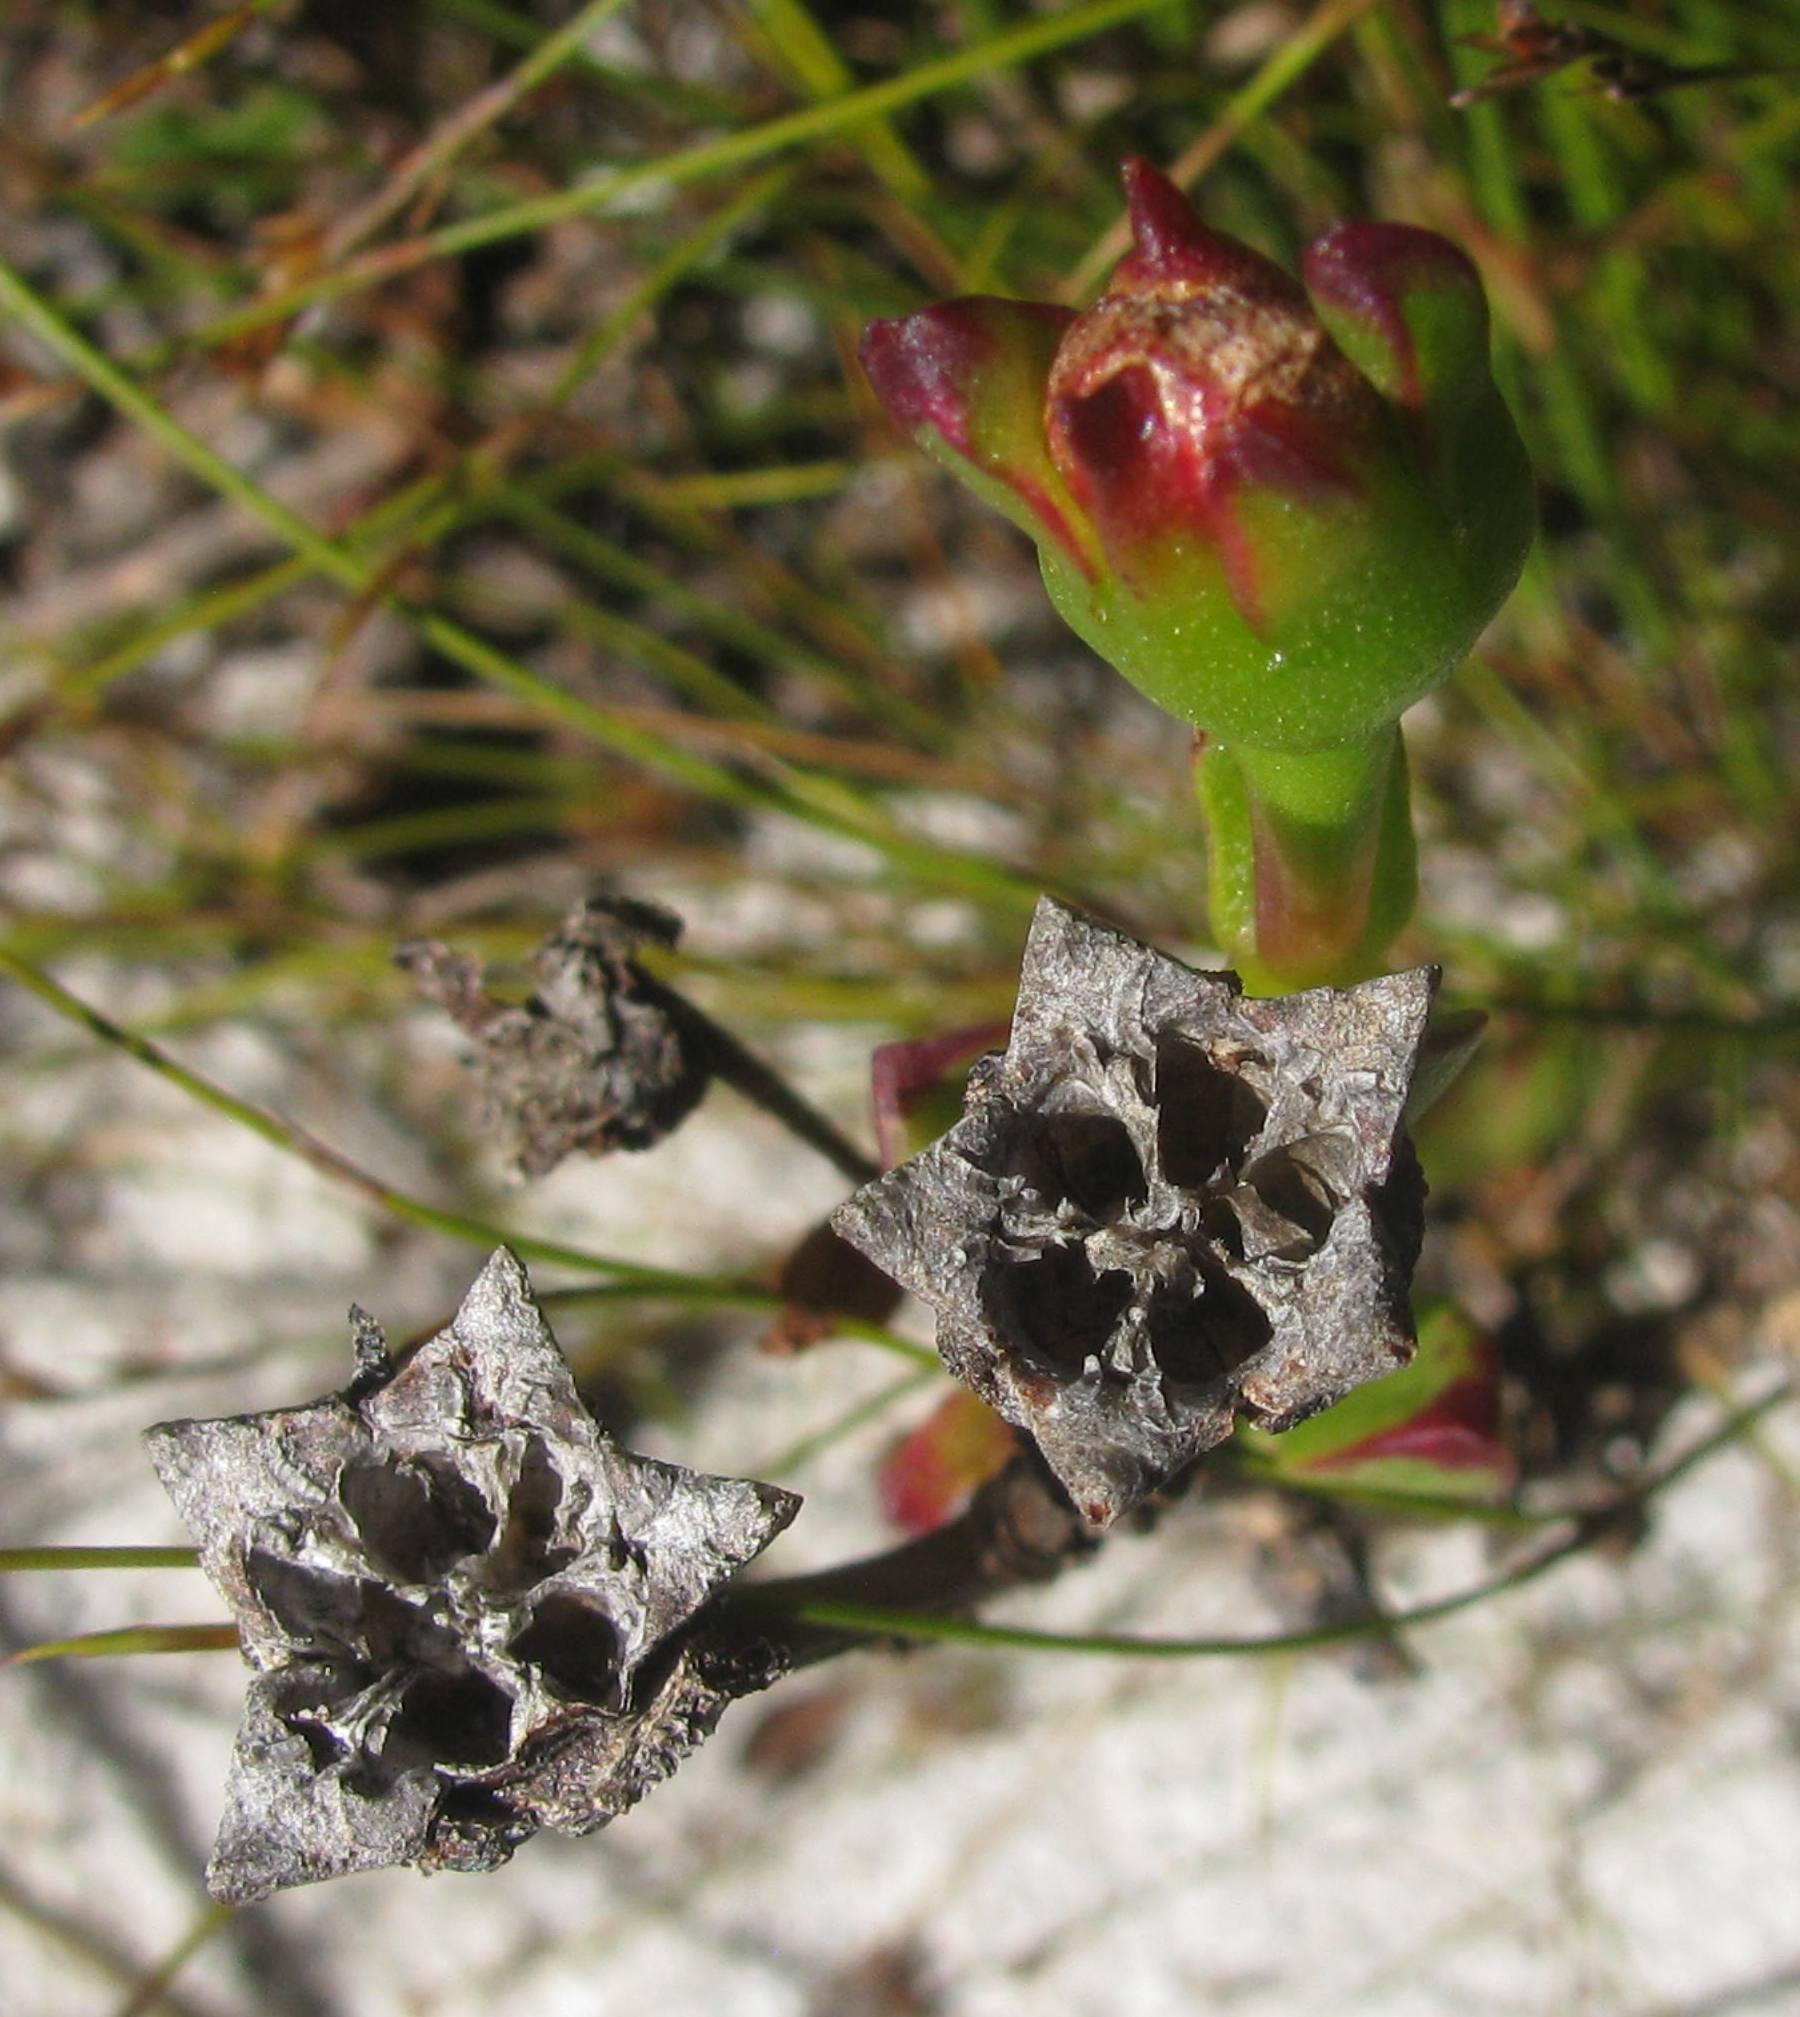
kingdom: Plantae
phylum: Tracheophyta
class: Magnoliopsida
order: Caryophyllales
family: Aizoaceae
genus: Erepsia
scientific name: Erepsia inclaudens
